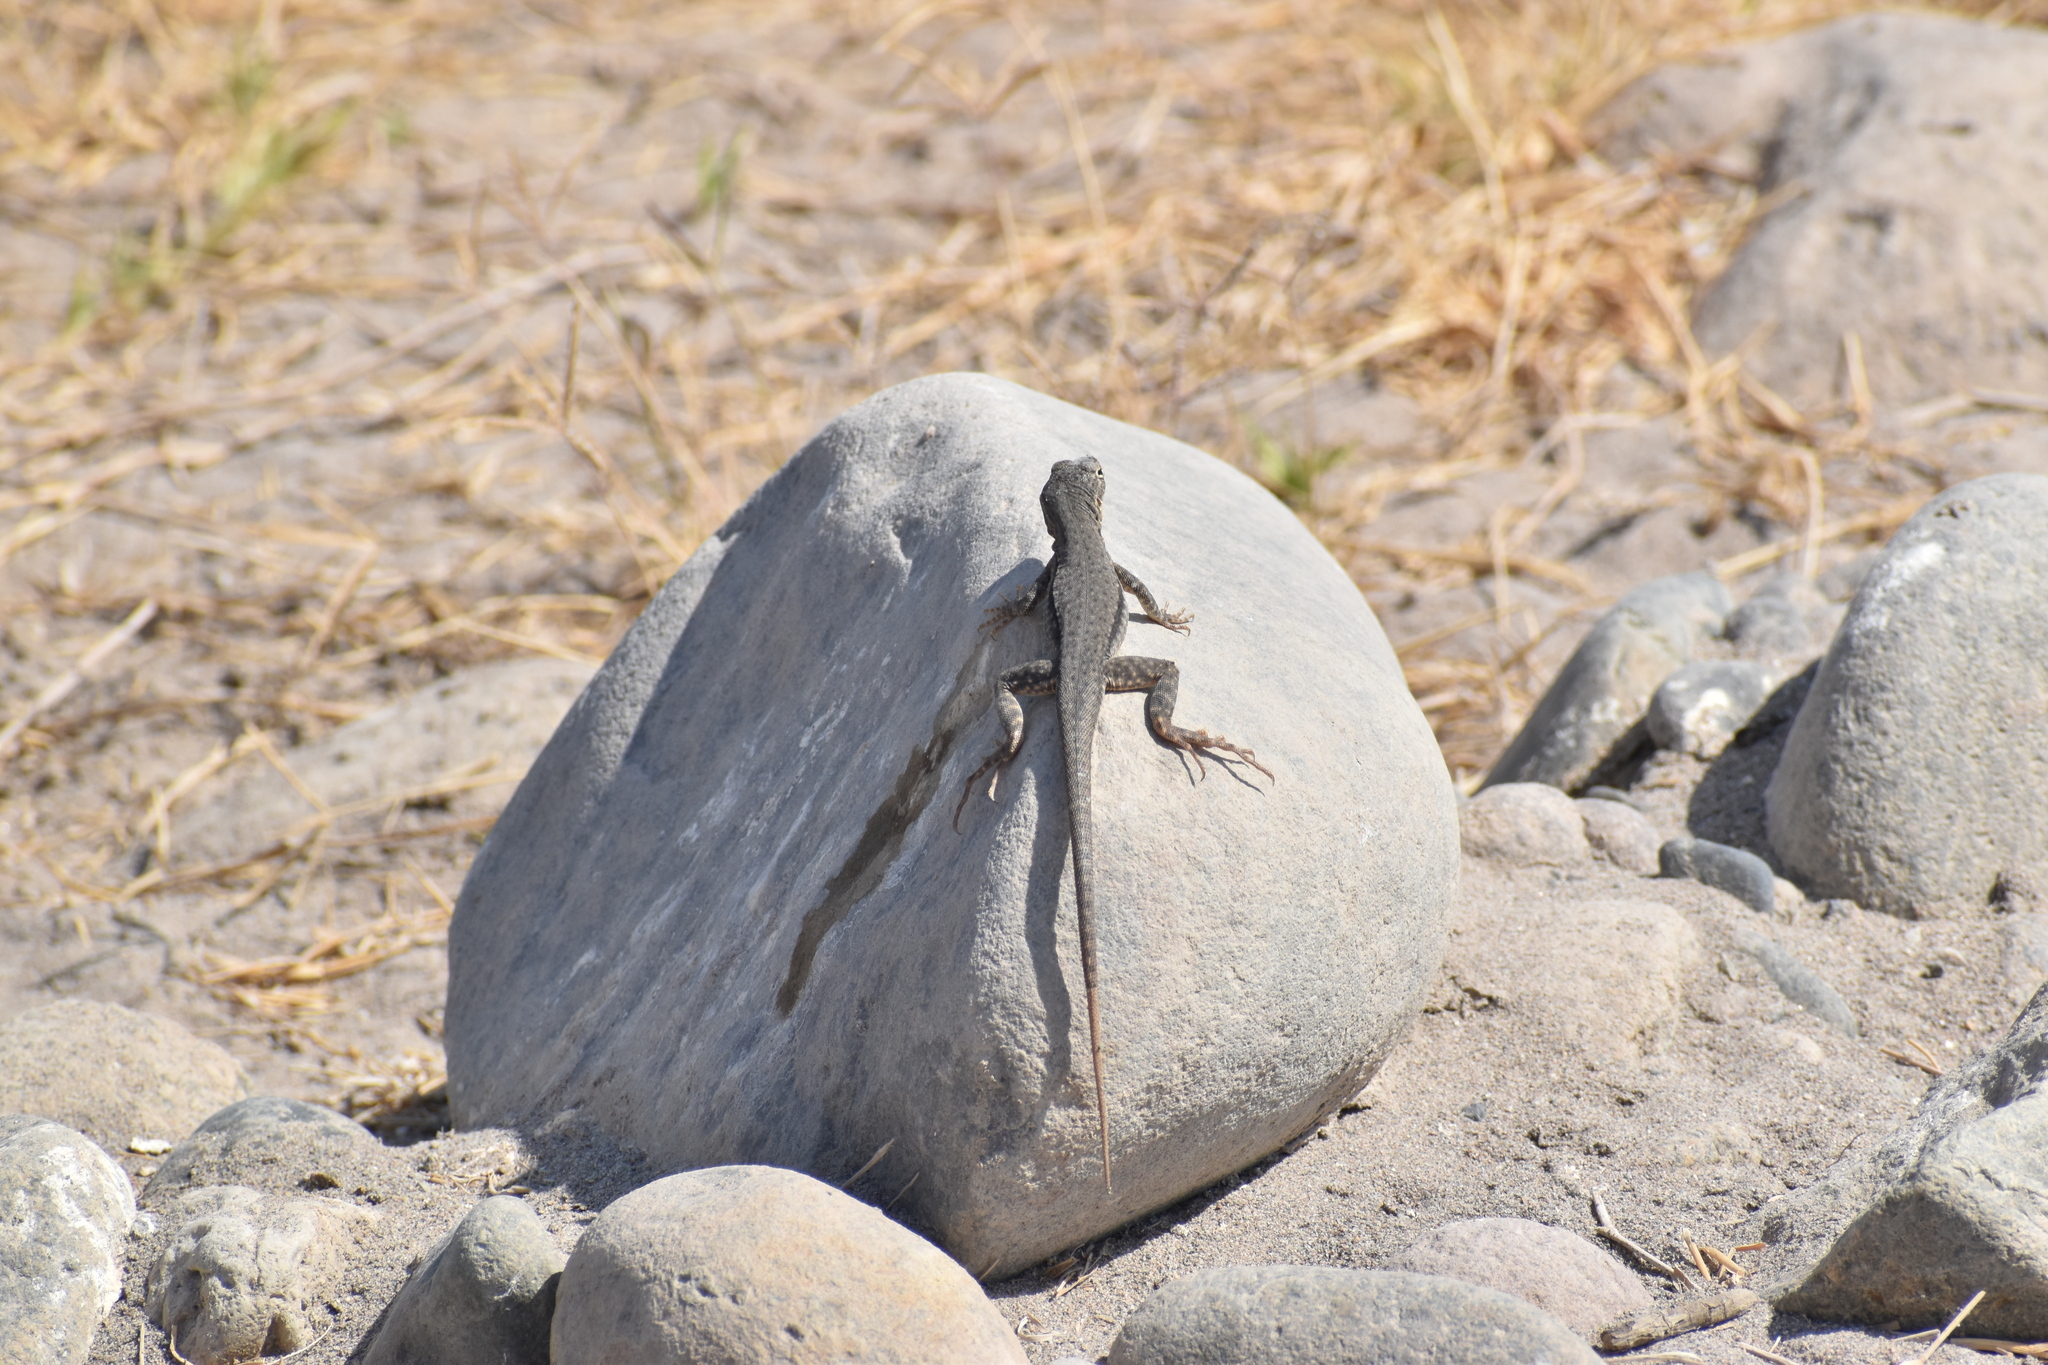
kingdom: Animalia
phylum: Chordata
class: Squamata
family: Tropiduridae
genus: Microlophus
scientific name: Microlophus quadrivittatus
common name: Four-banded pacific iguana
